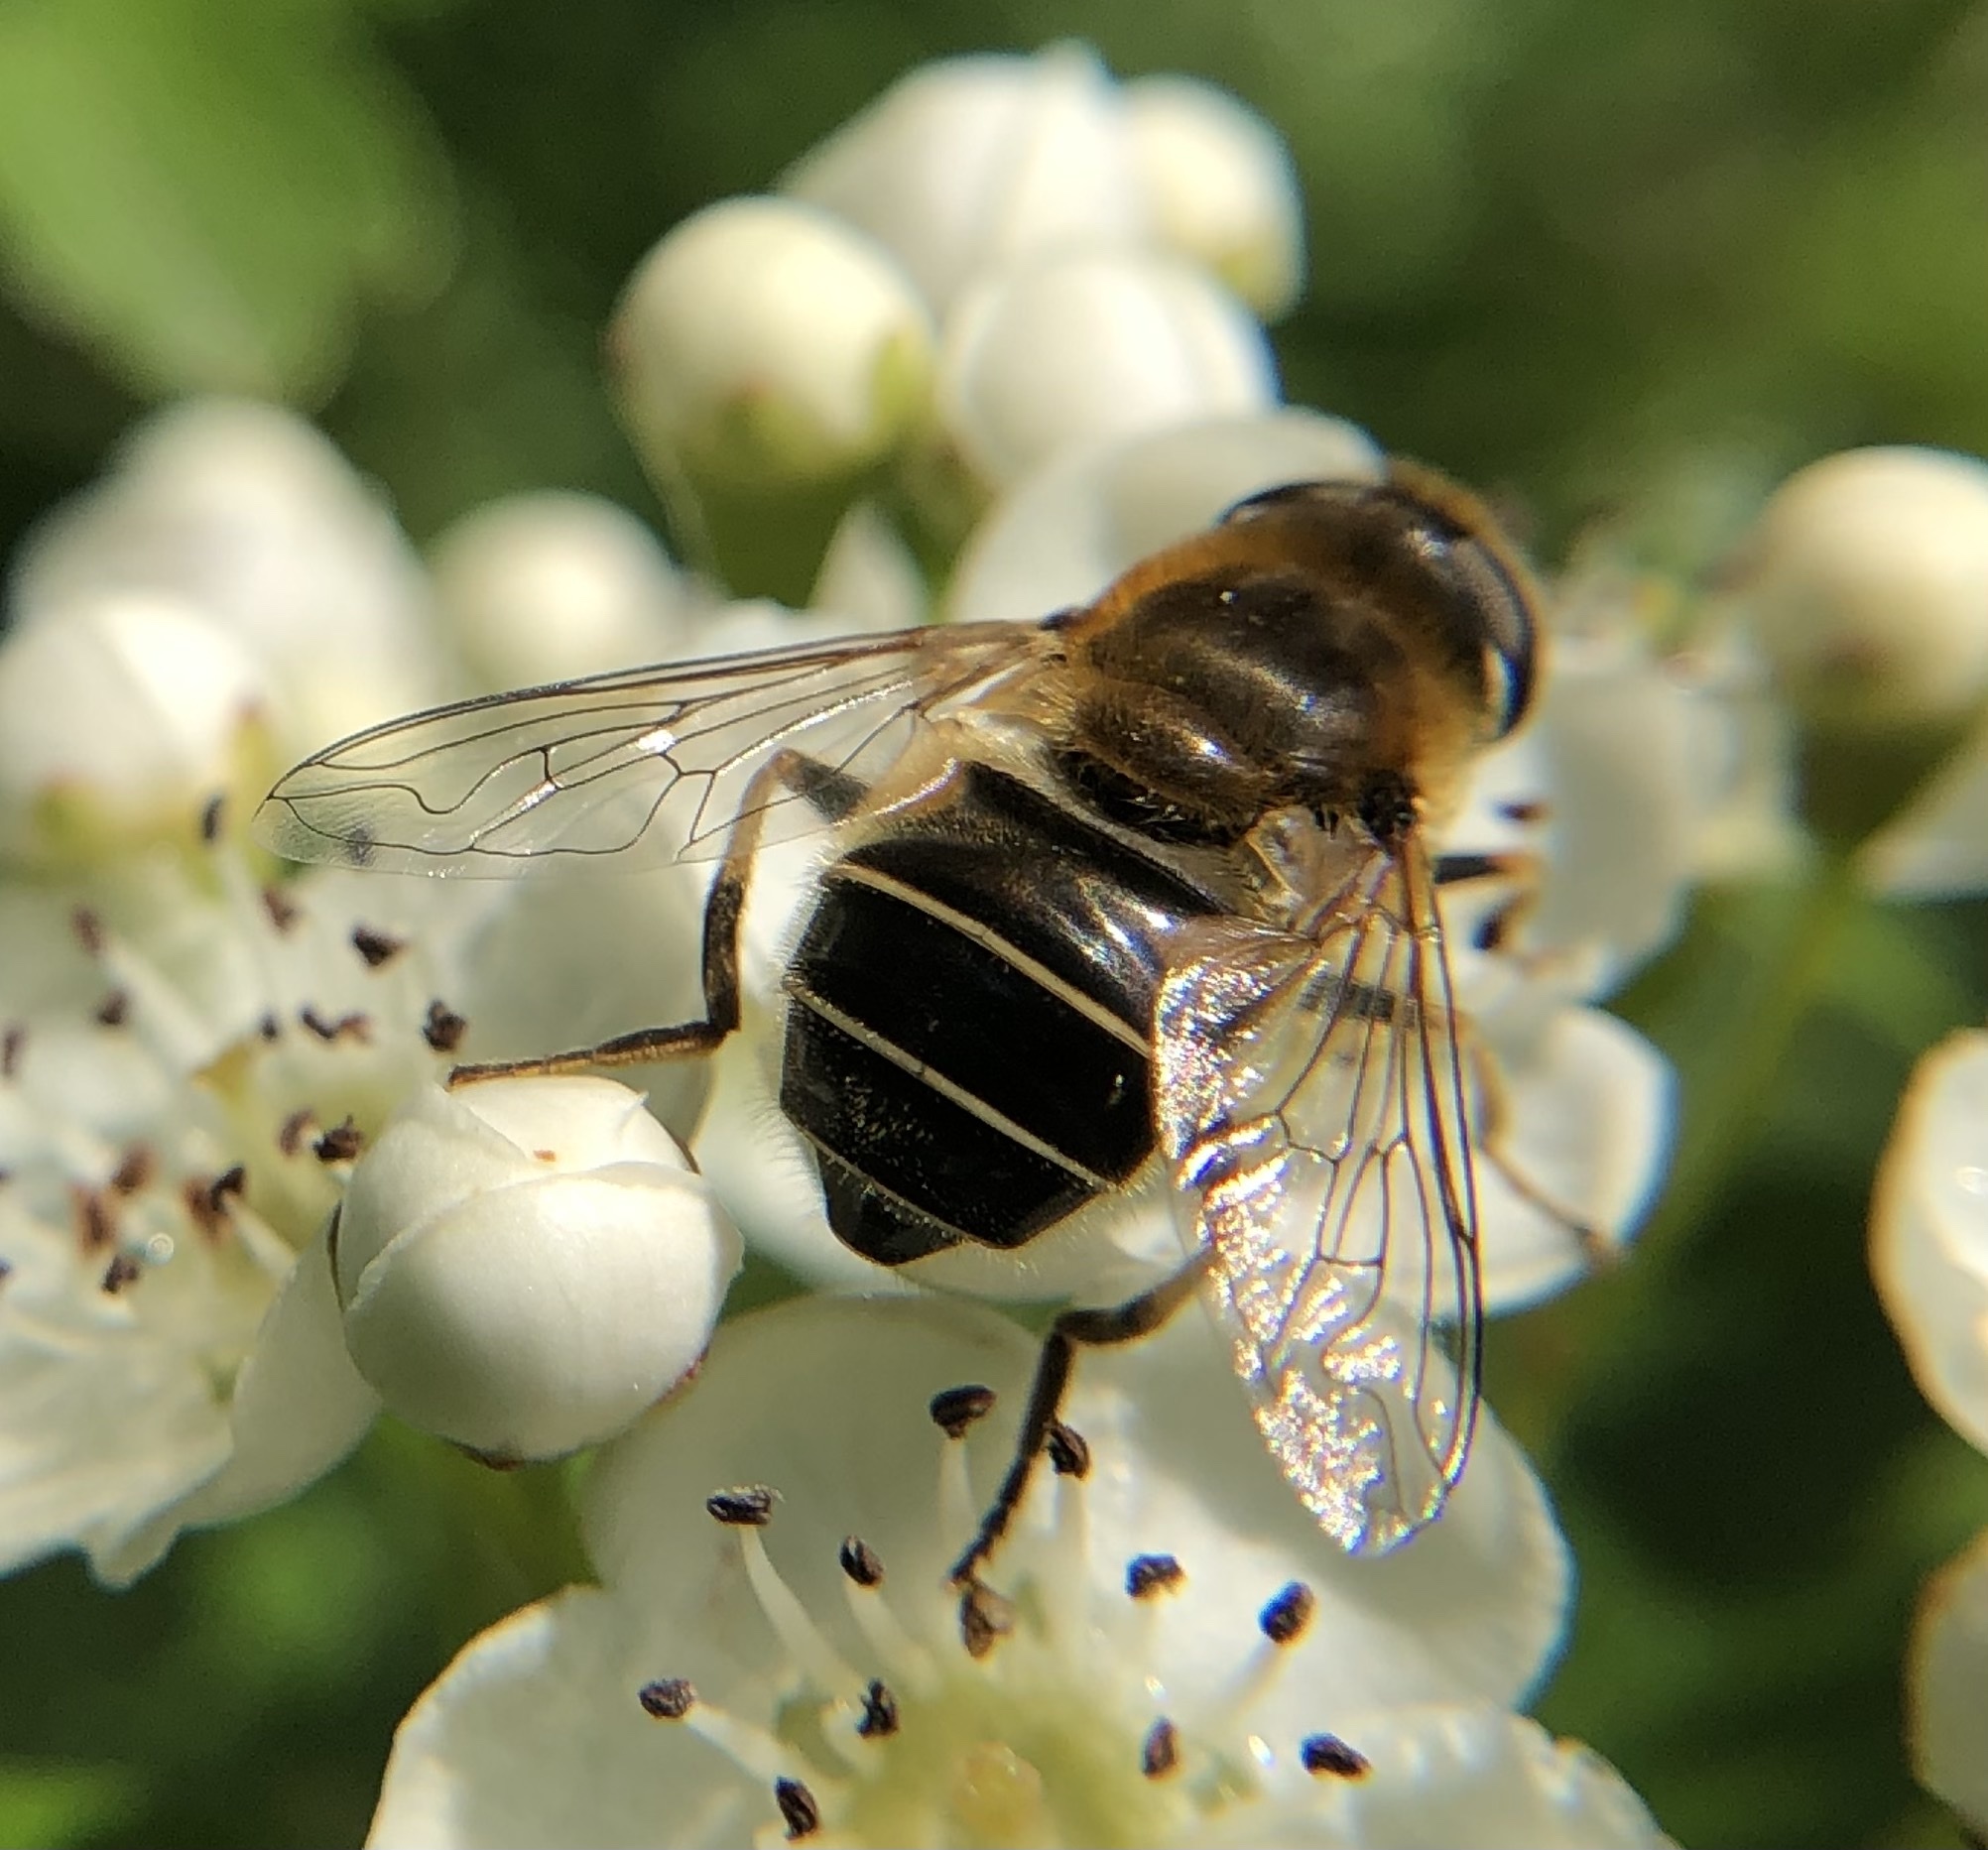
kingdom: Animalia
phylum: Arthropoda
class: Insecta
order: Diptera
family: Syrphidae
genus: Eristalis
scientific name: Eristalis nemorum
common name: Orange-spined drone fly
